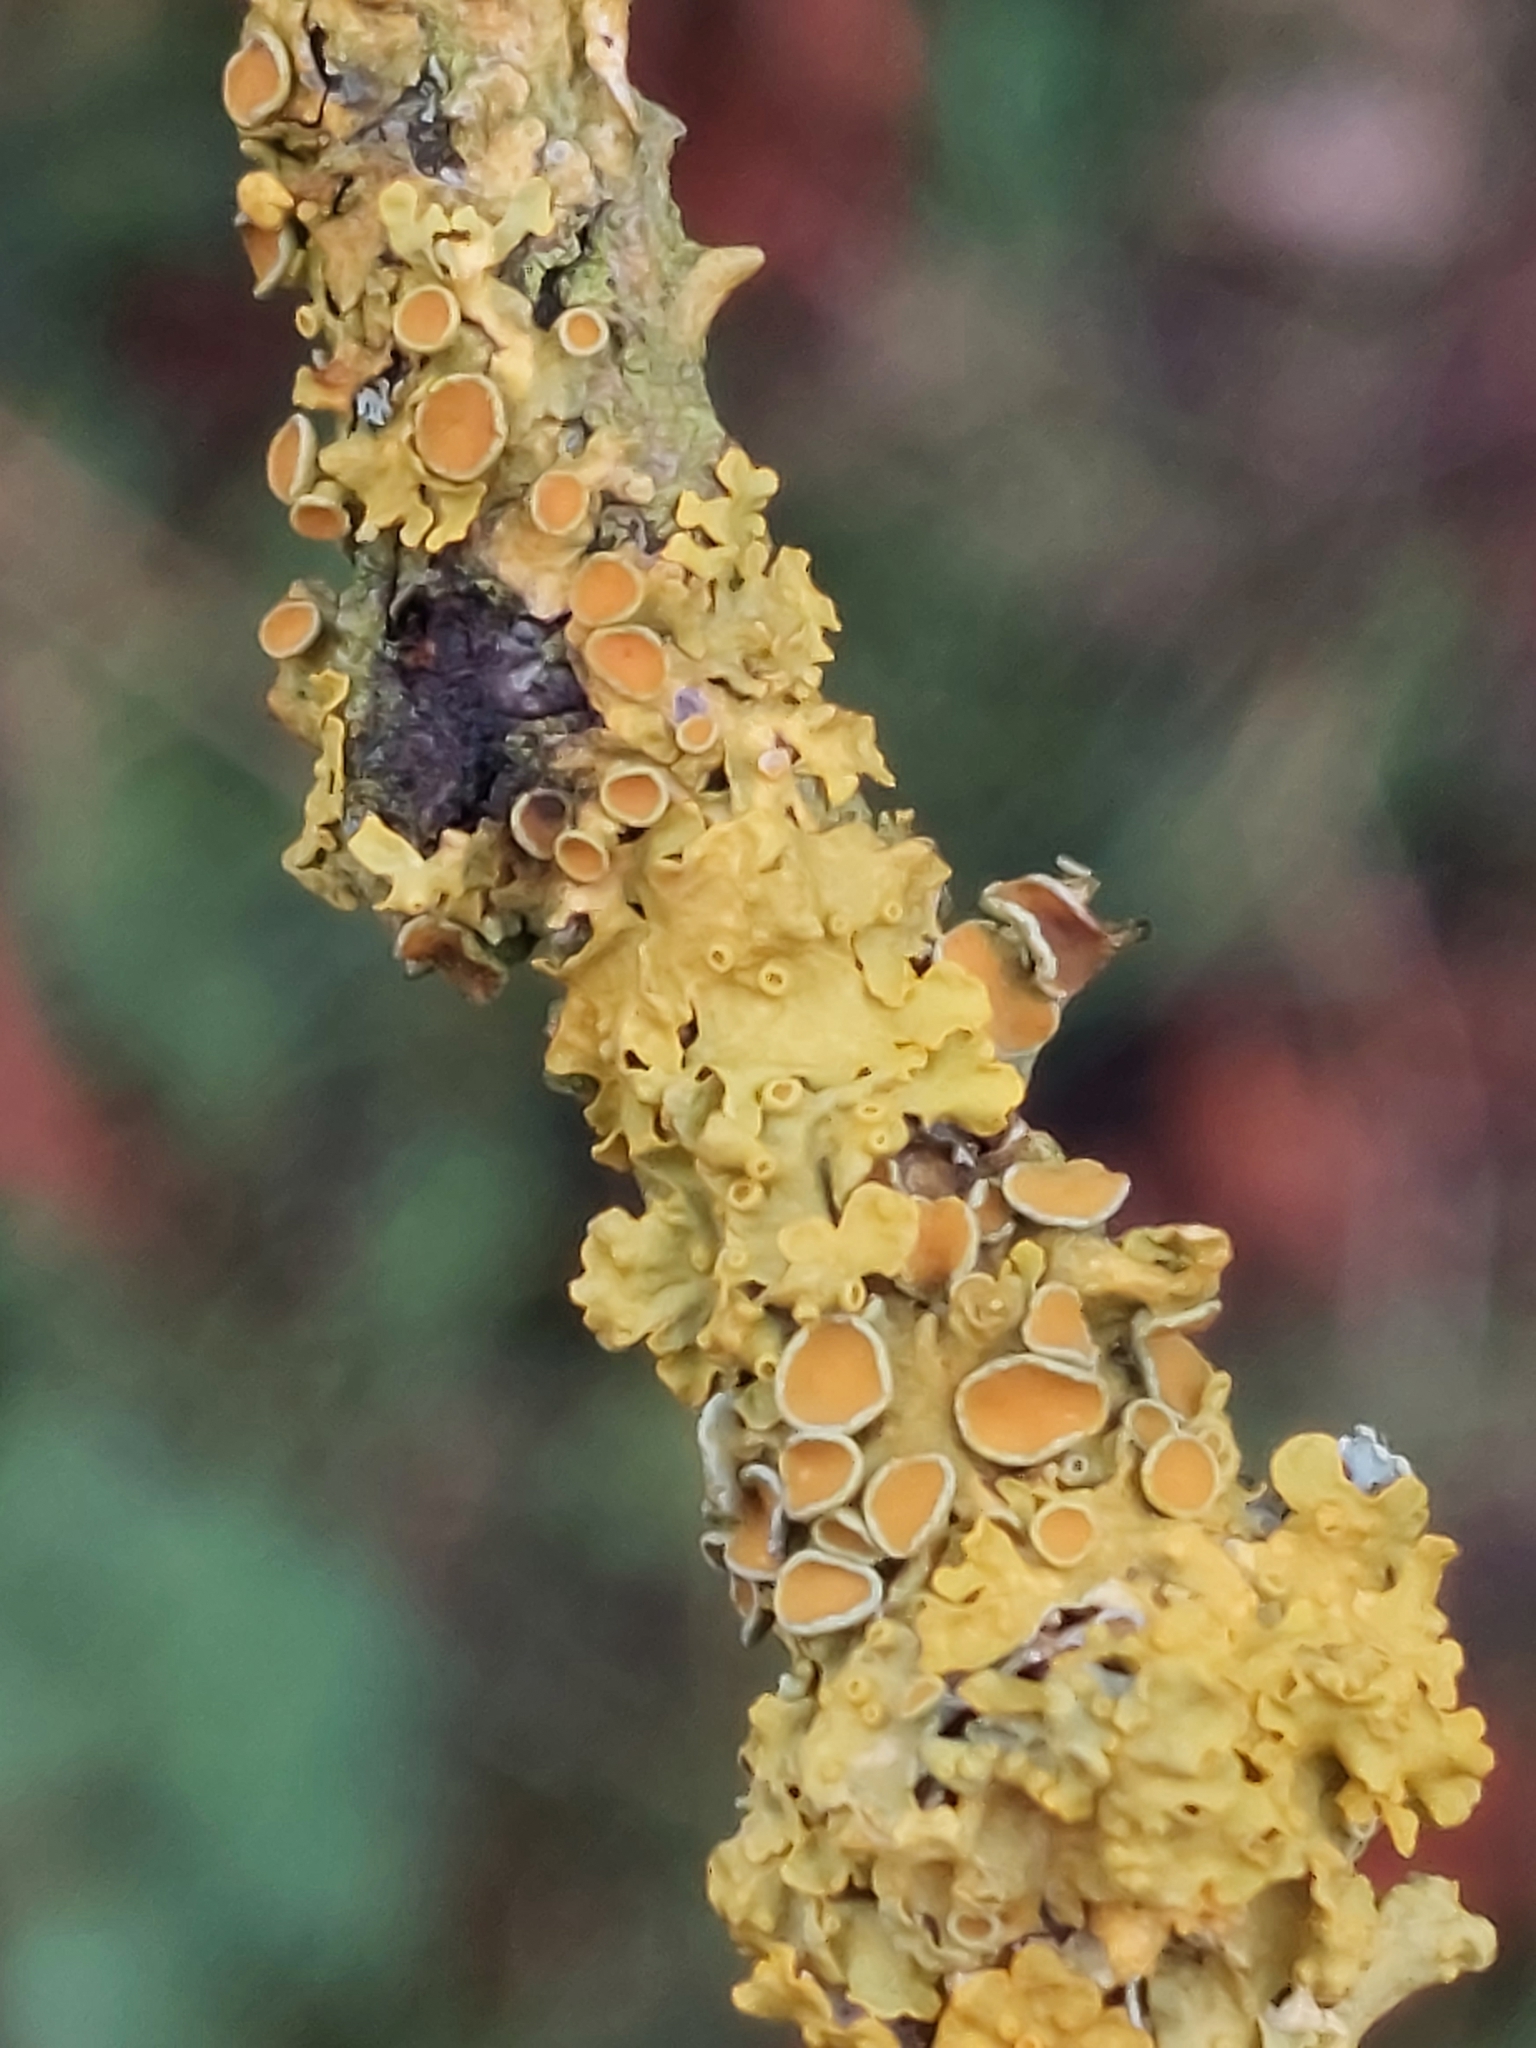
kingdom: Fungi
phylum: Ascomycota
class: Lecanoromycetes
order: Teloschistales
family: Teloschistaceae
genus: Xanthoria
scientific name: Xanthoria parietina
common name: Common orange lichen
